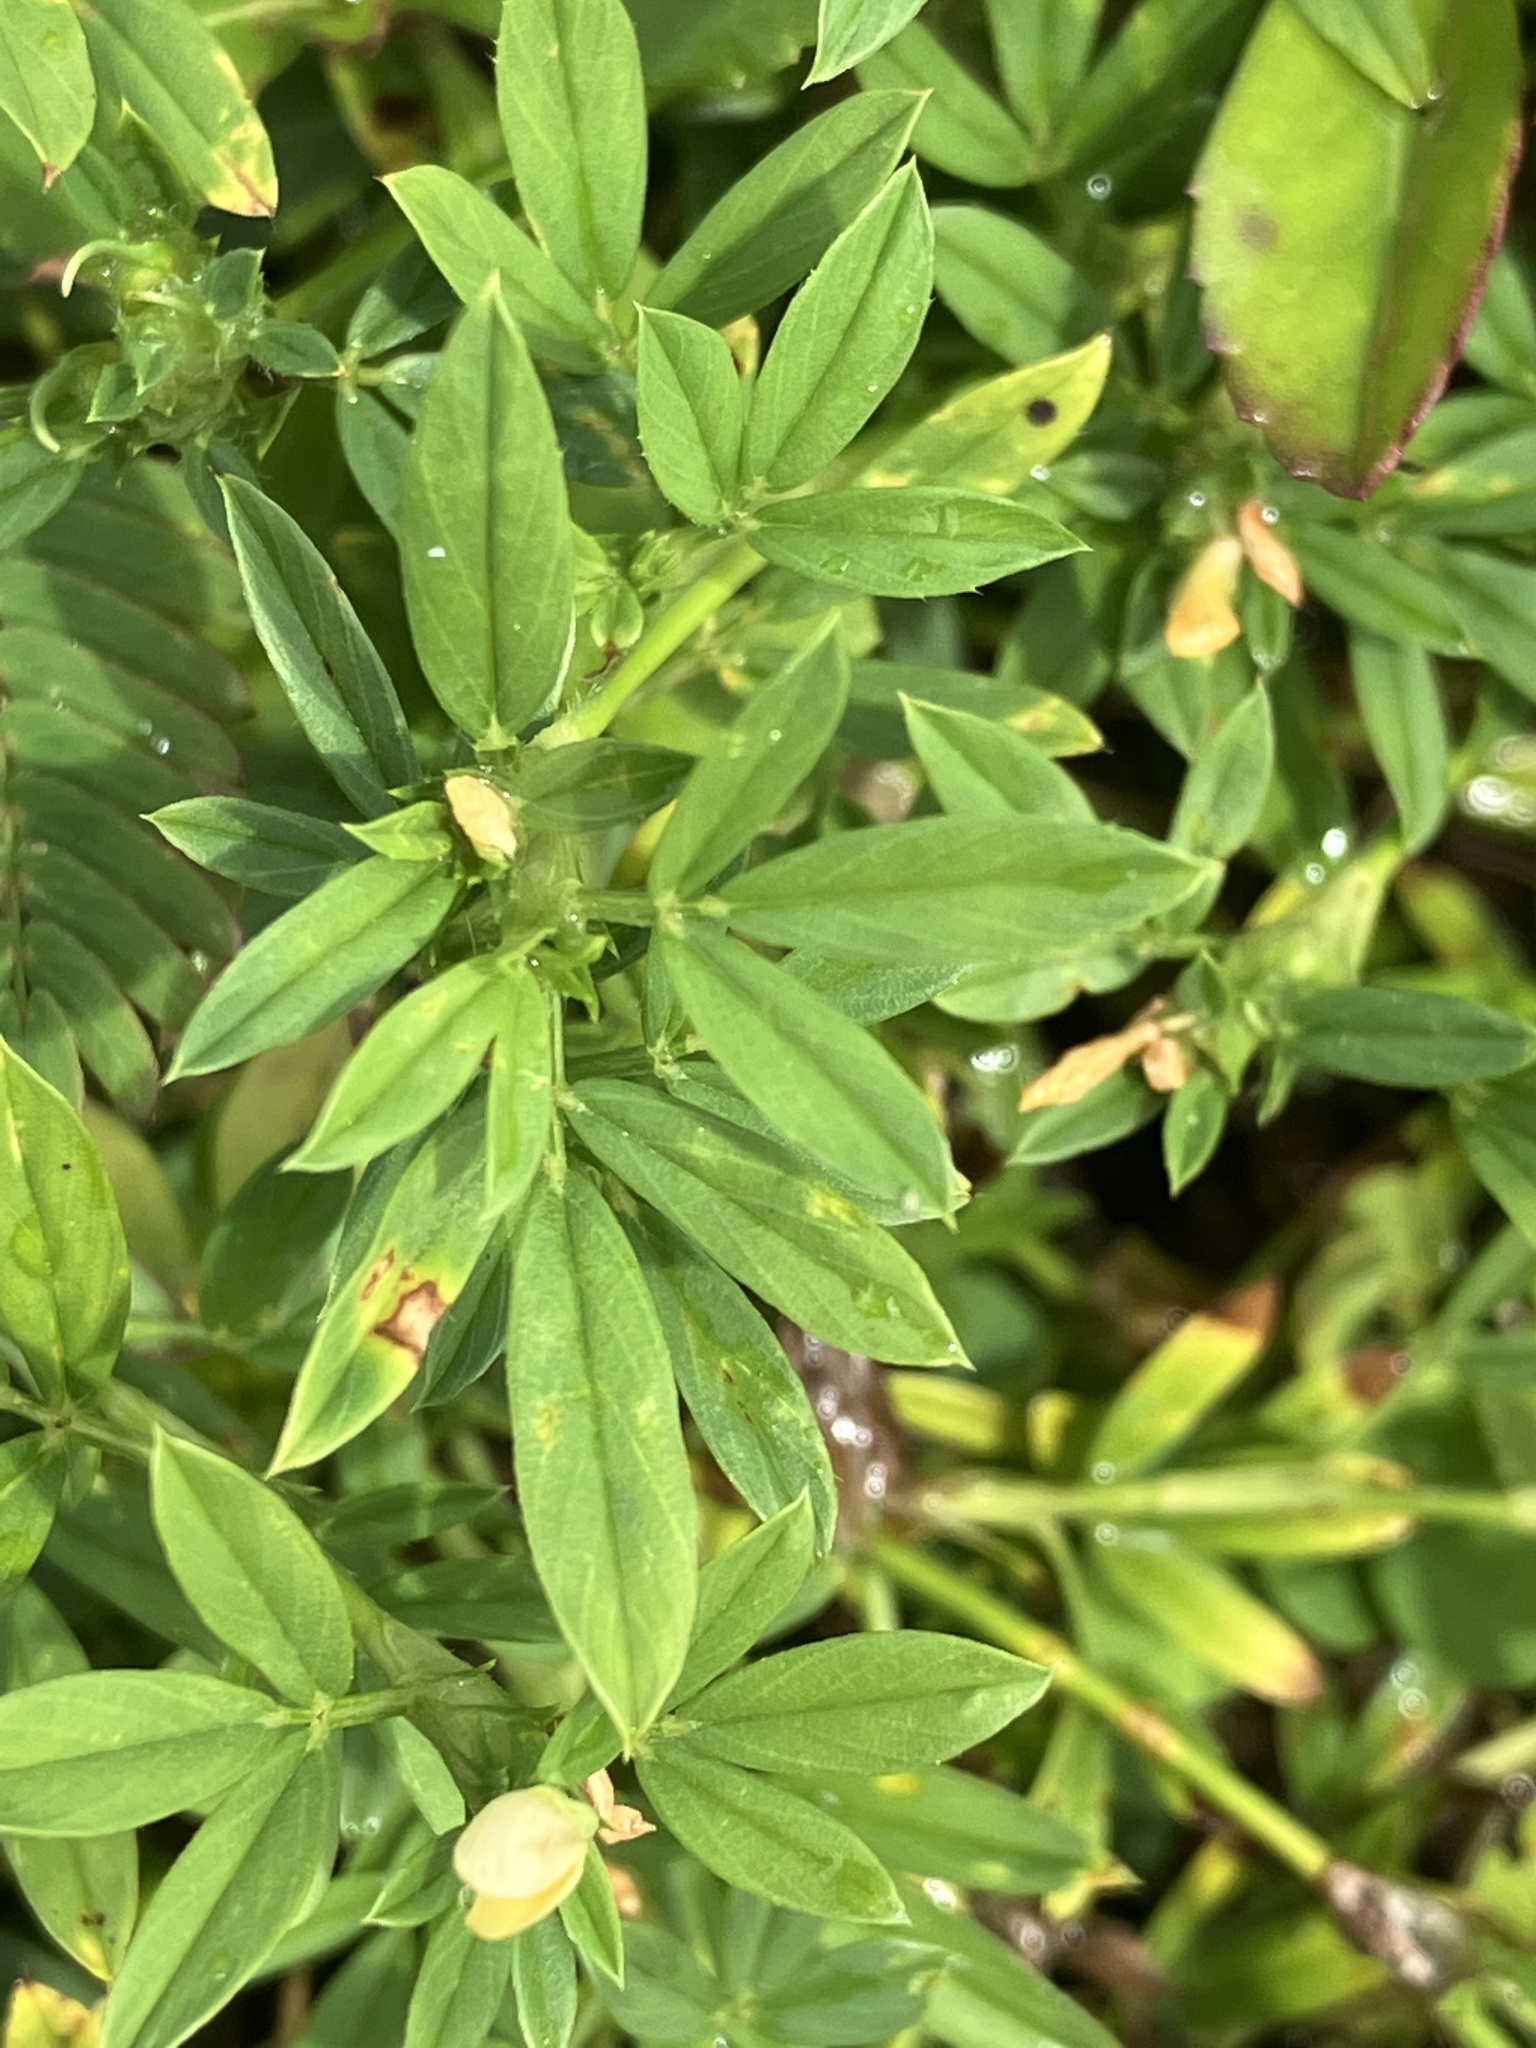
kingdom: Plantae
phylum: Tracheophyta
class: Magnoliopsida
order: Fabales
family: Fabaceae
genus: Stylosanthes
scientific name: Stylosanthes scabra
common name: Pencilflower
